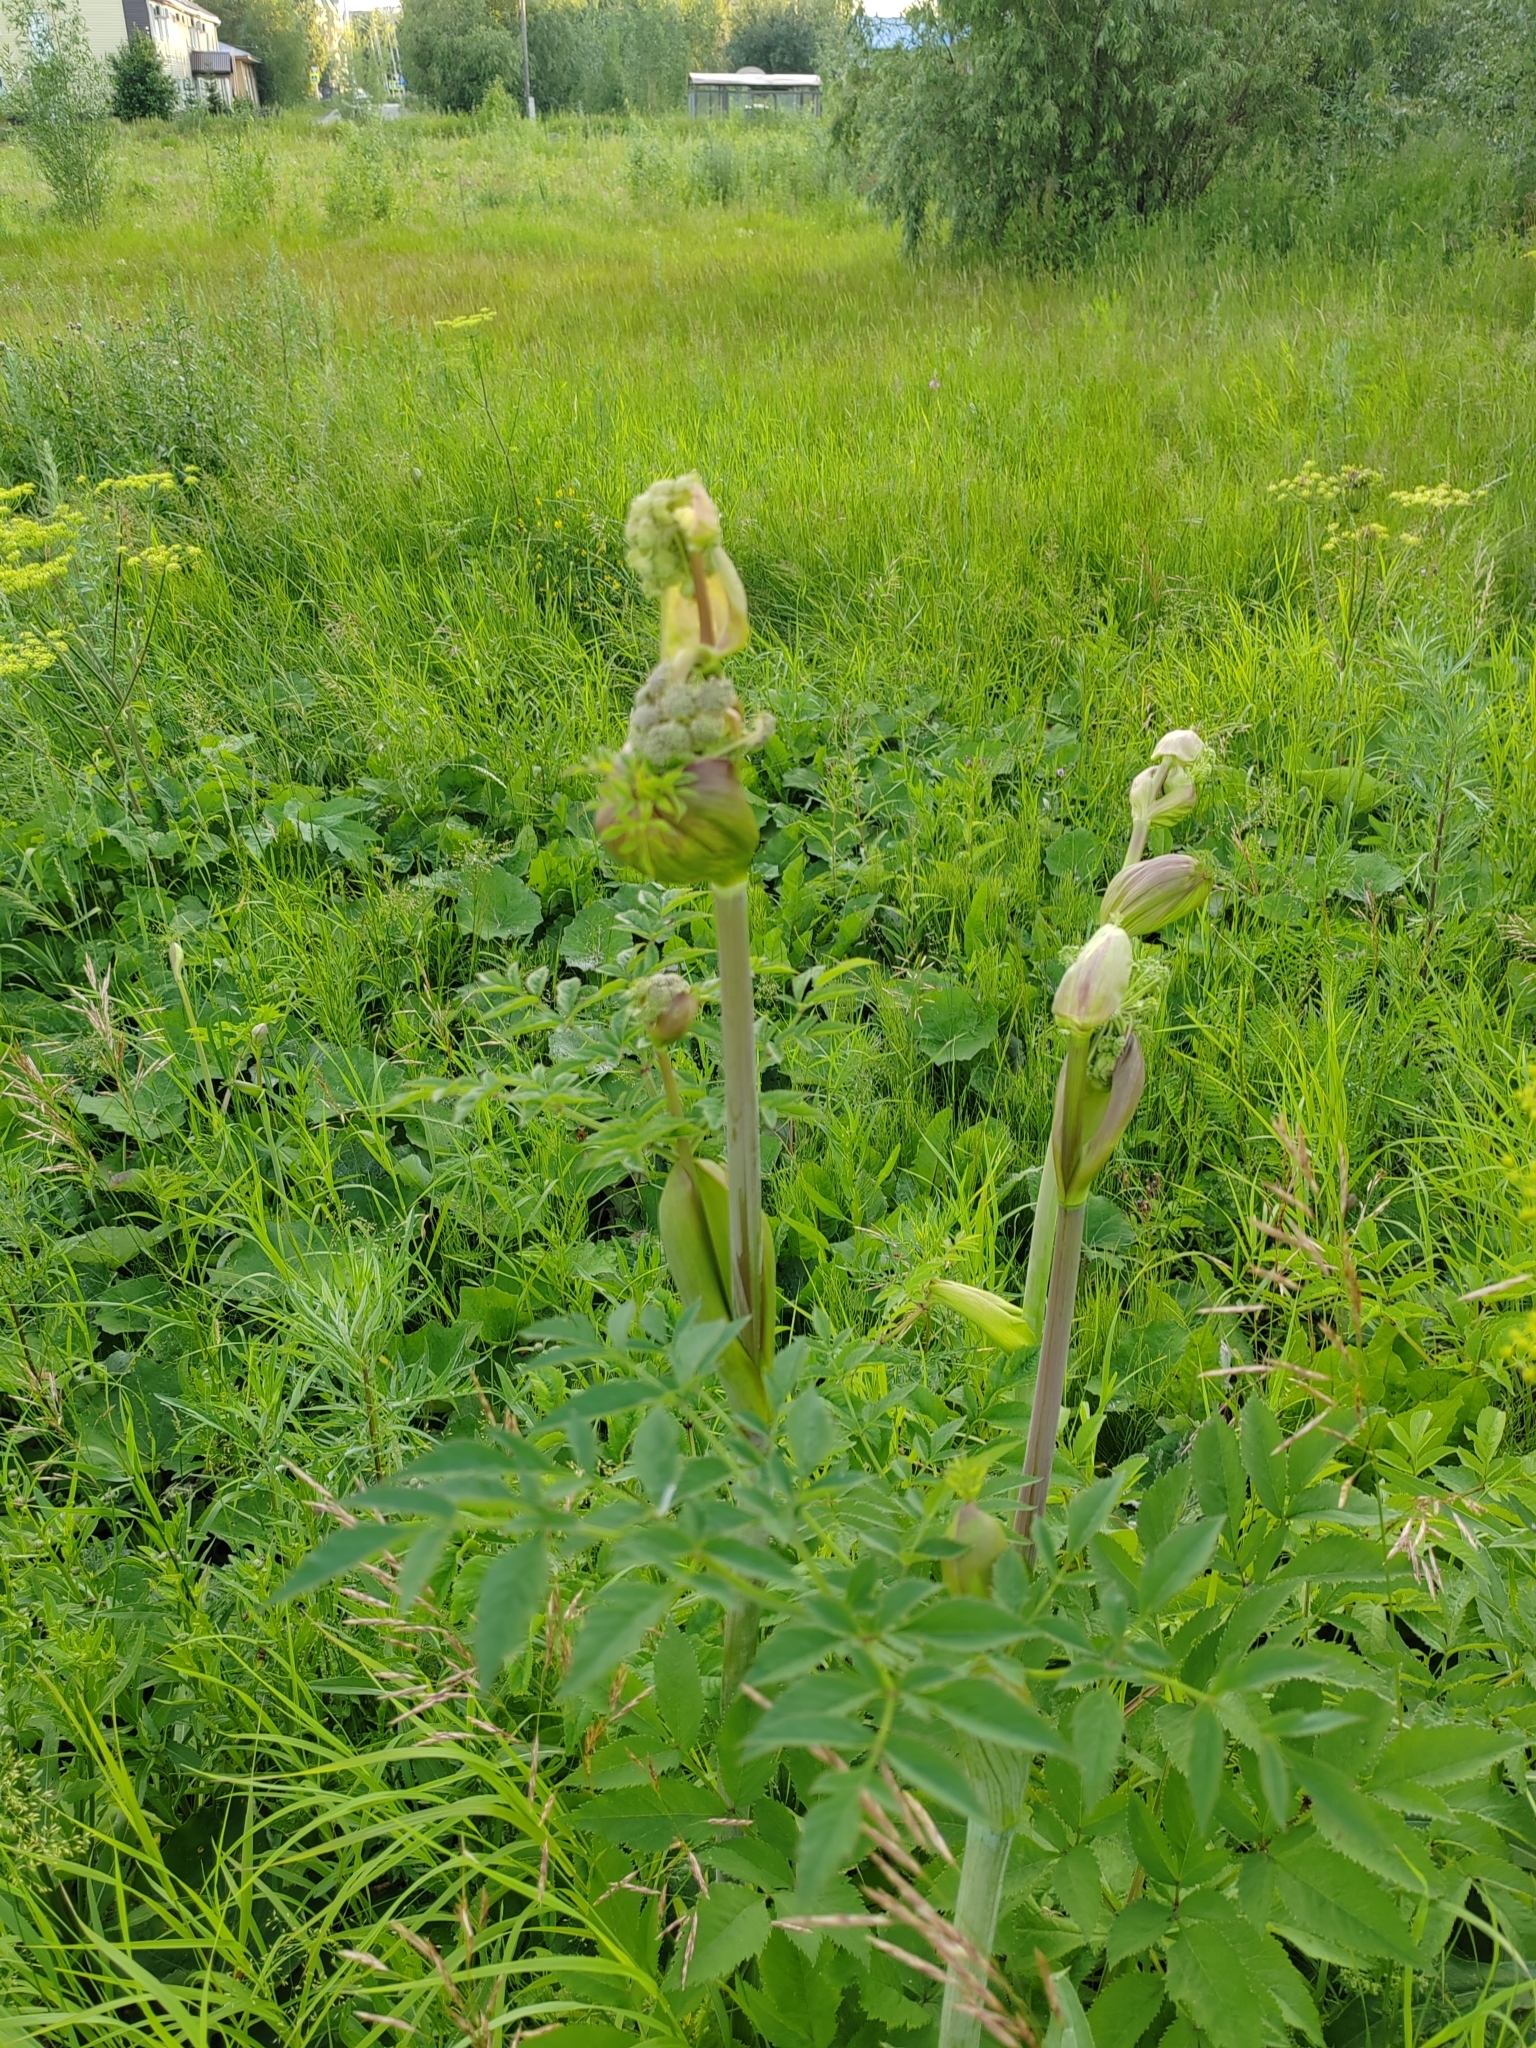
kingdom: Plantae
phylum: Tracheophyta
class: Magnoliopsida
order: Apiales
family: Apiaceae
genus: Angelica
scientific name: Angelica sylvestris
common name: Wild angelica
